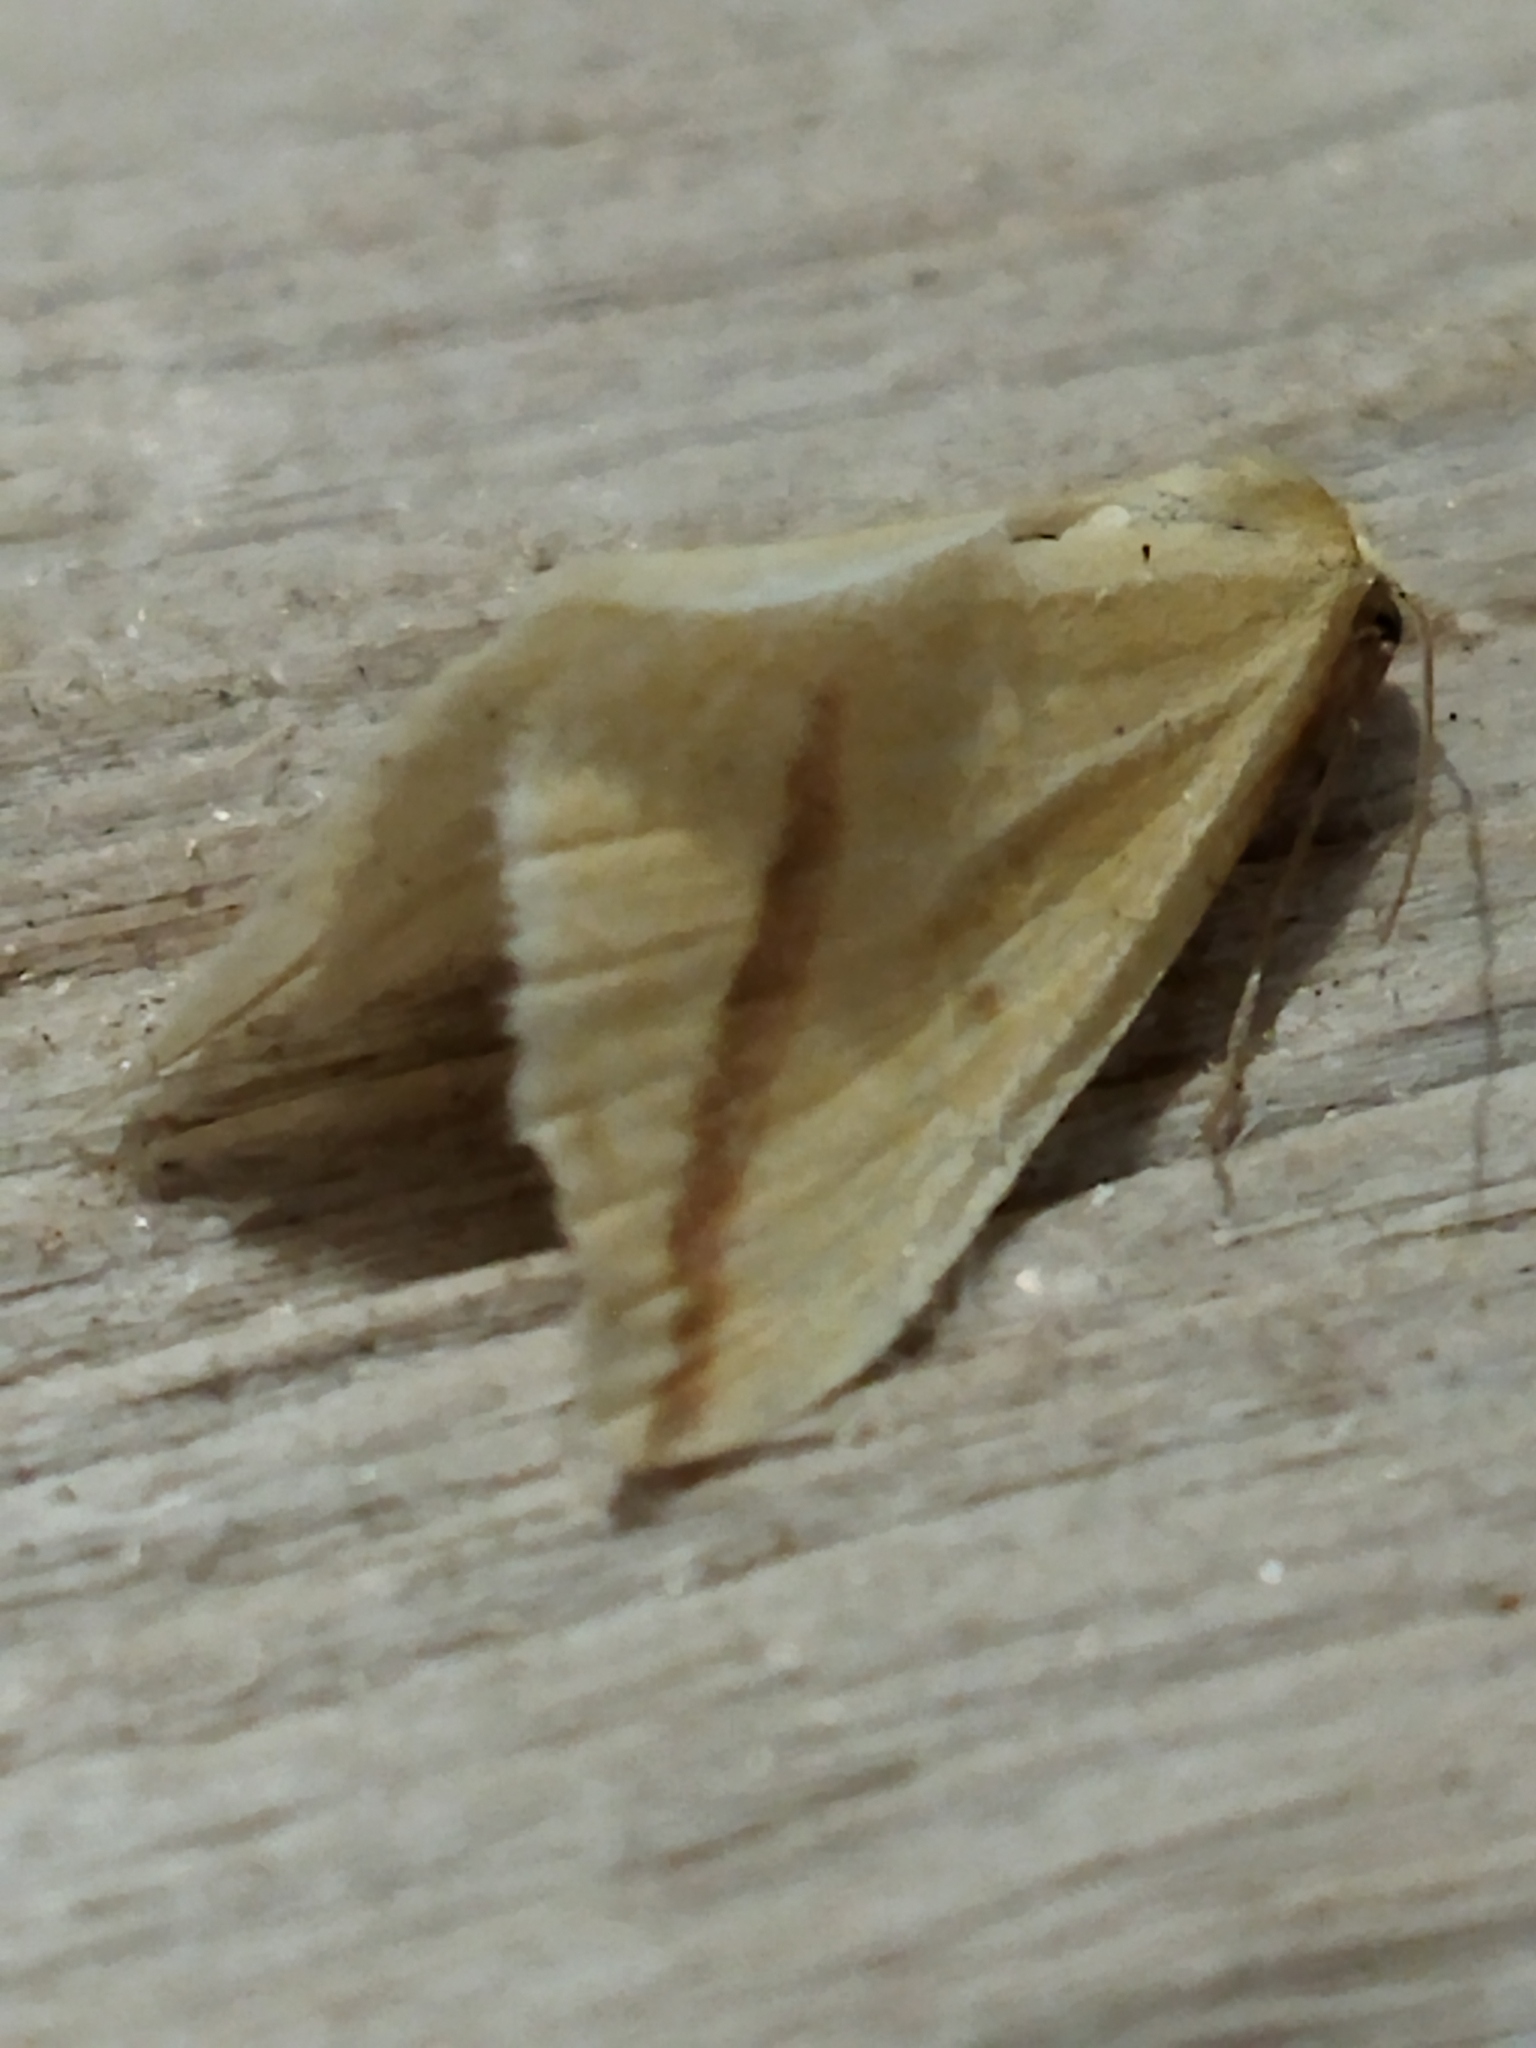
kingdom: Animalia
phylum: Arthropoda
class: Insecta
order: Lepidoptera
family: Geometridae
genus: Rhodometra
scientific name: Rhodometra sacraria
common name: Vestal
